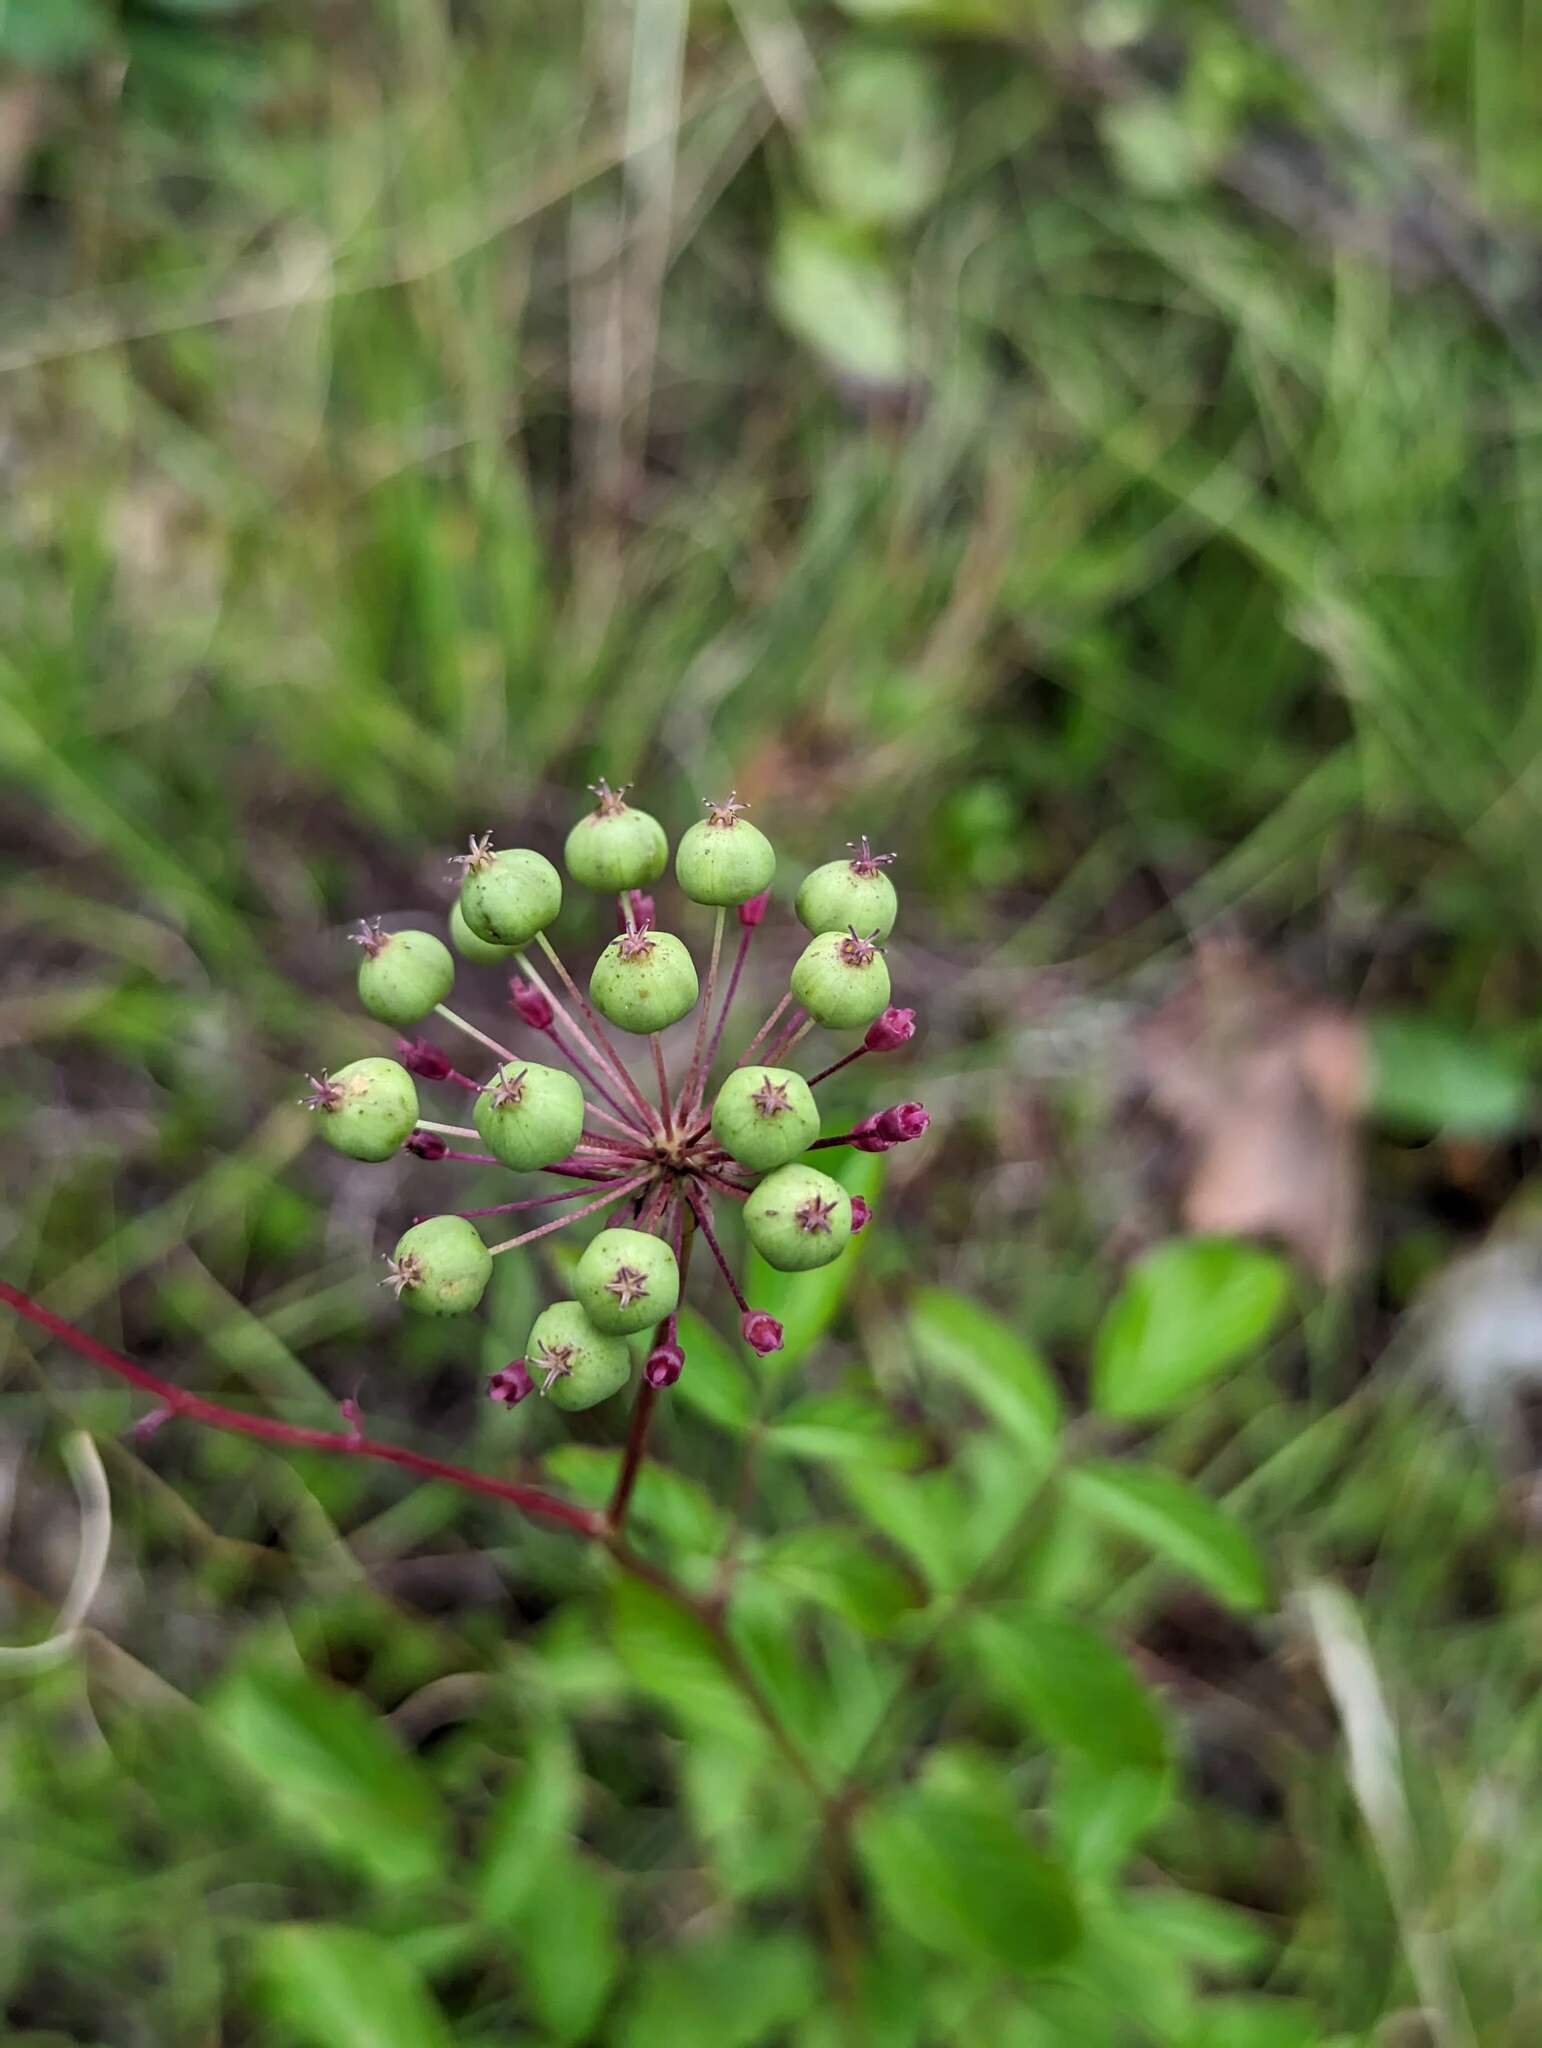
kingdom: Plantae
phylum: Tracheophyta
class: Magnoliopsida
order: Apiales
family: Araliaceae
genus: Aralia
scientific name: Aralia hispida
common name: Bristly sarsaparilla
